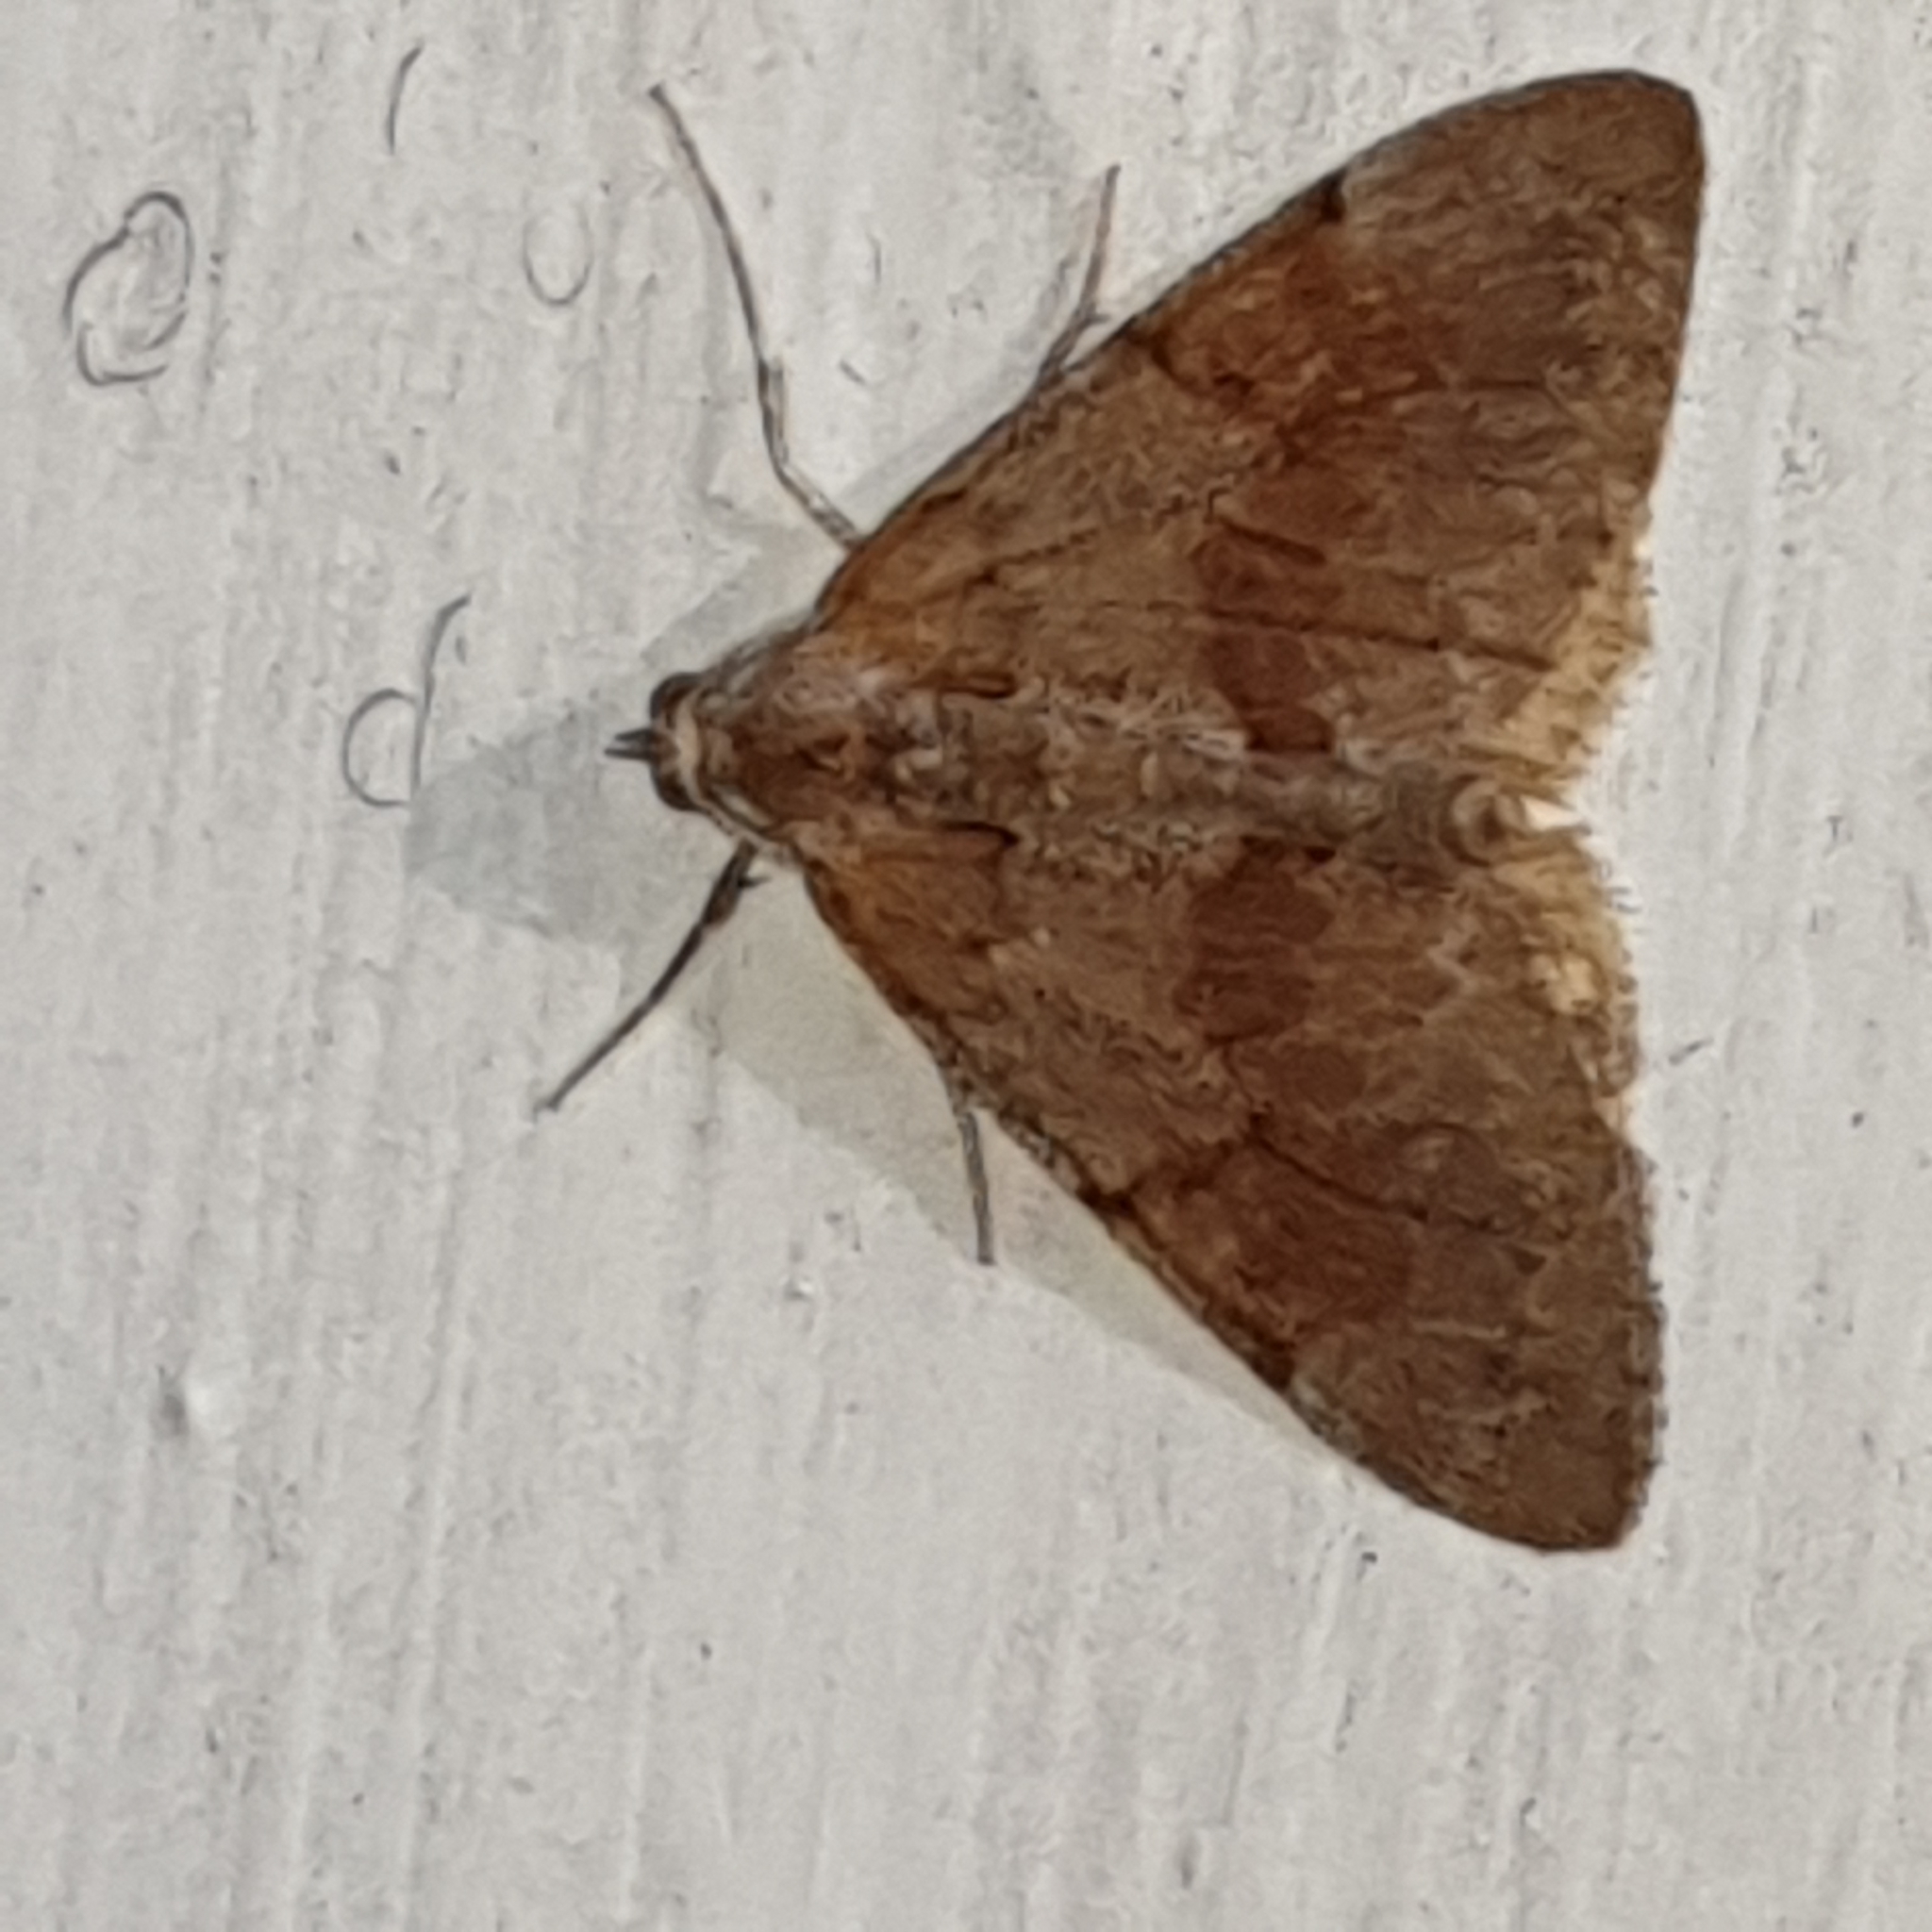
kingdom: Animalia
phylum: Arthropoda
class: Insecta
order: Lepidoptera
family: Geometridae
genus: Pennithera
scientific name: Pennithera firmata
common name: Pine carpet
